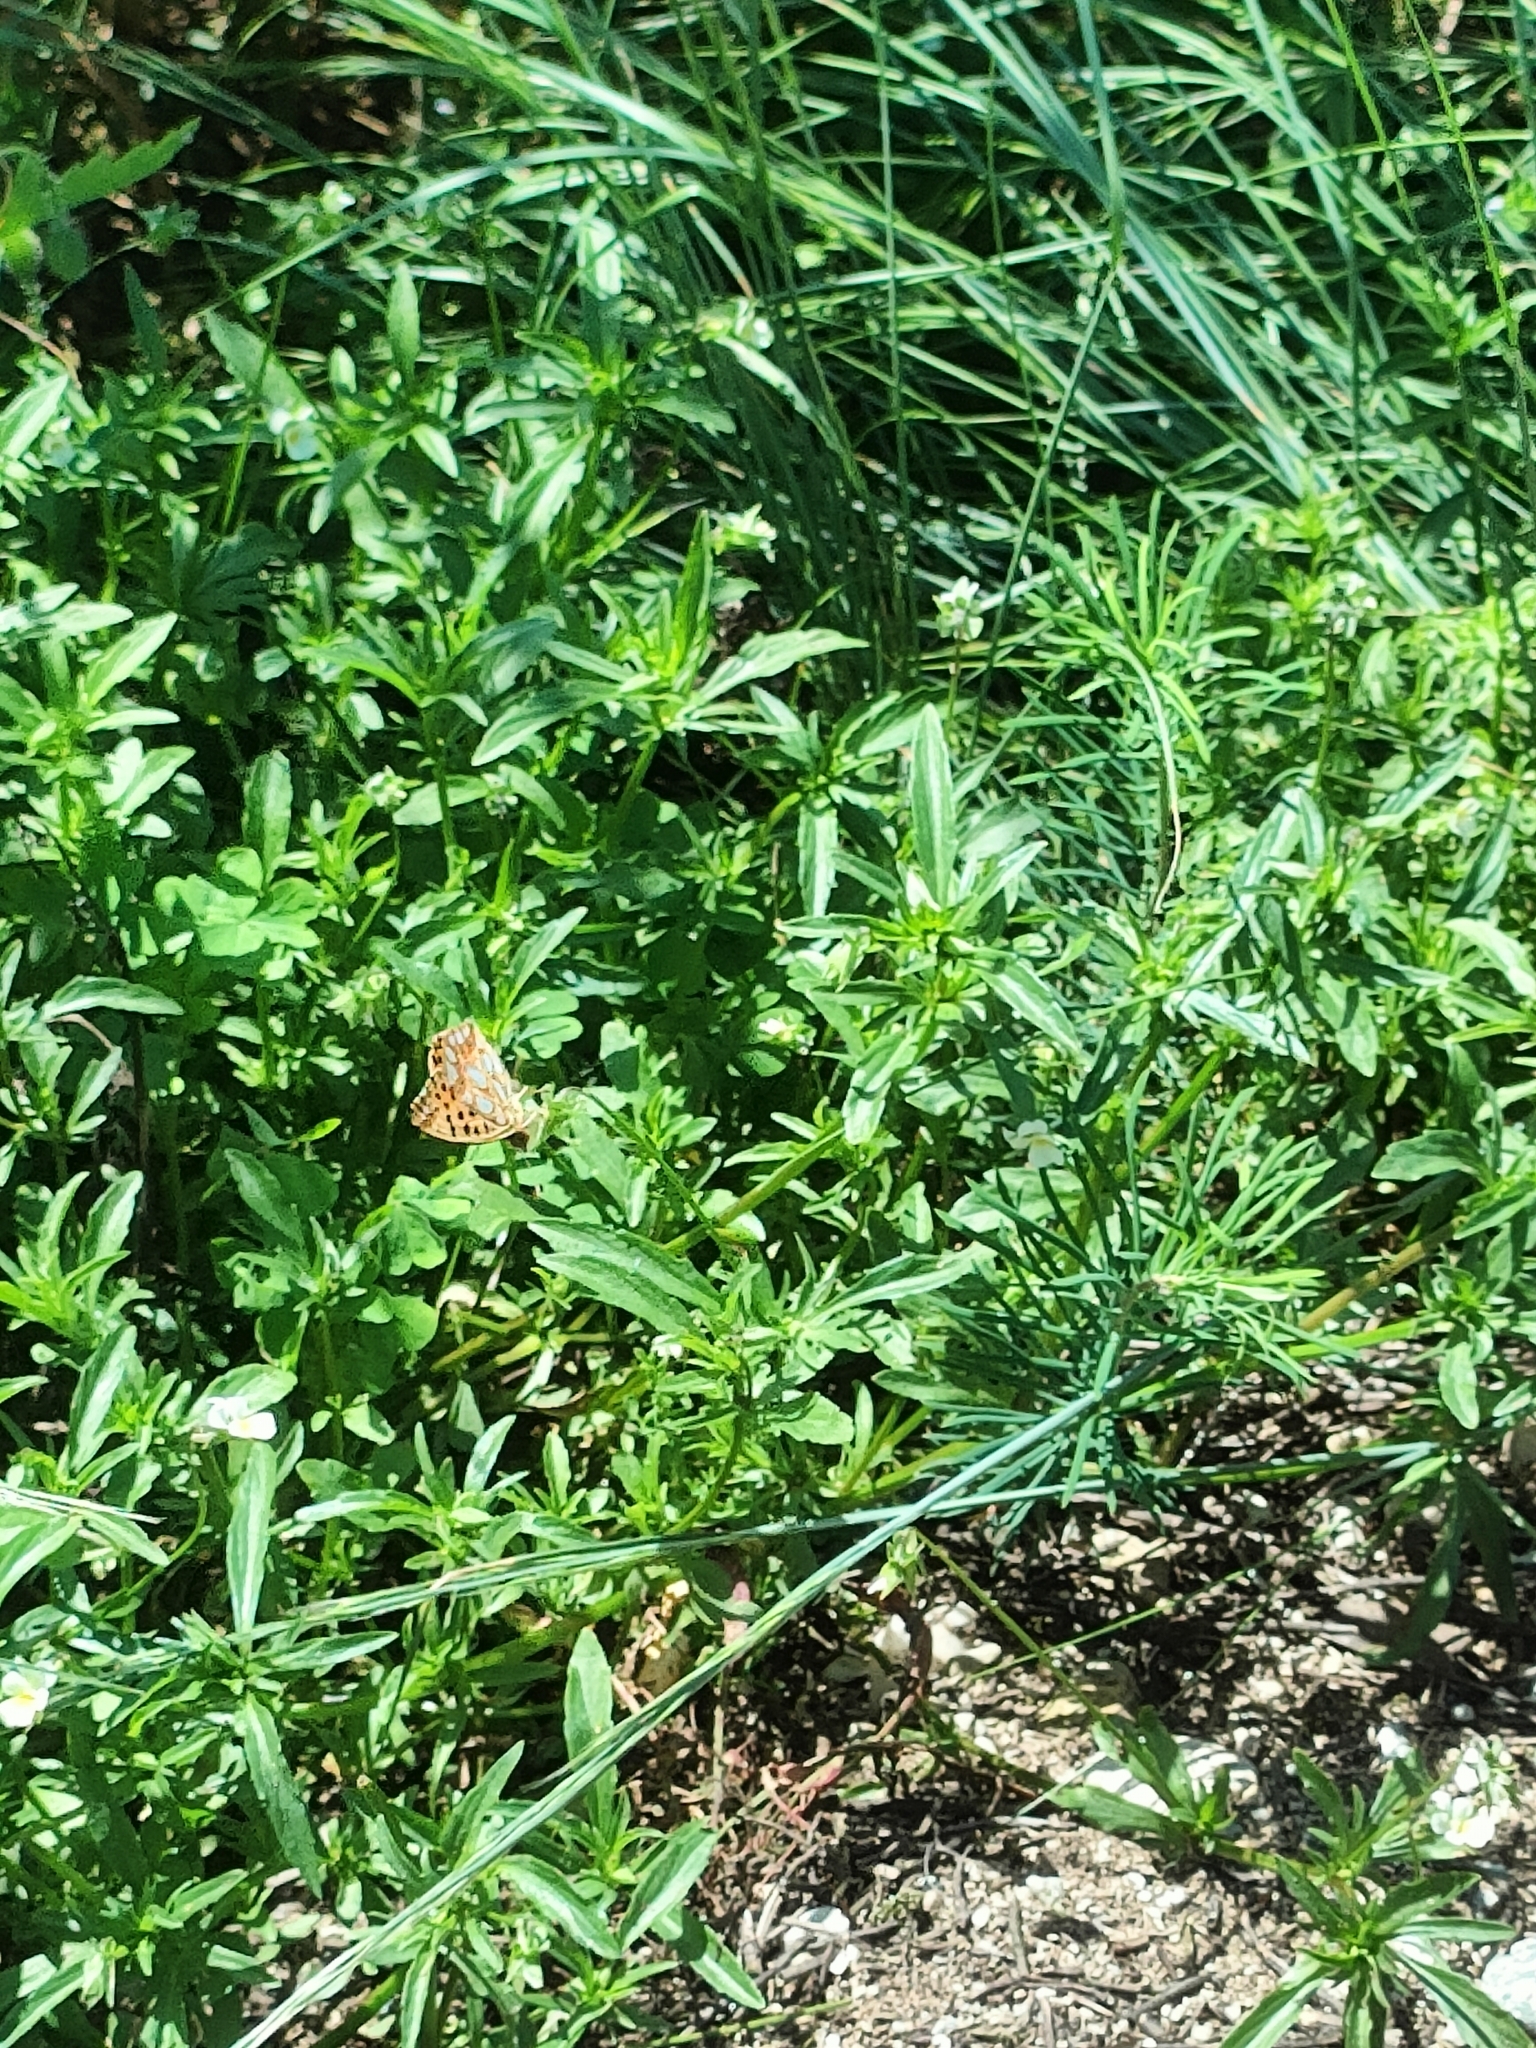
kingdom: Animalia
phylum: Arthropoda
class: Insecta
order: Lepidoptera
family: Nymphalidae
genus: Issoria
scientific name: Issoria lathonia
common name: Queen of spain fritillary
